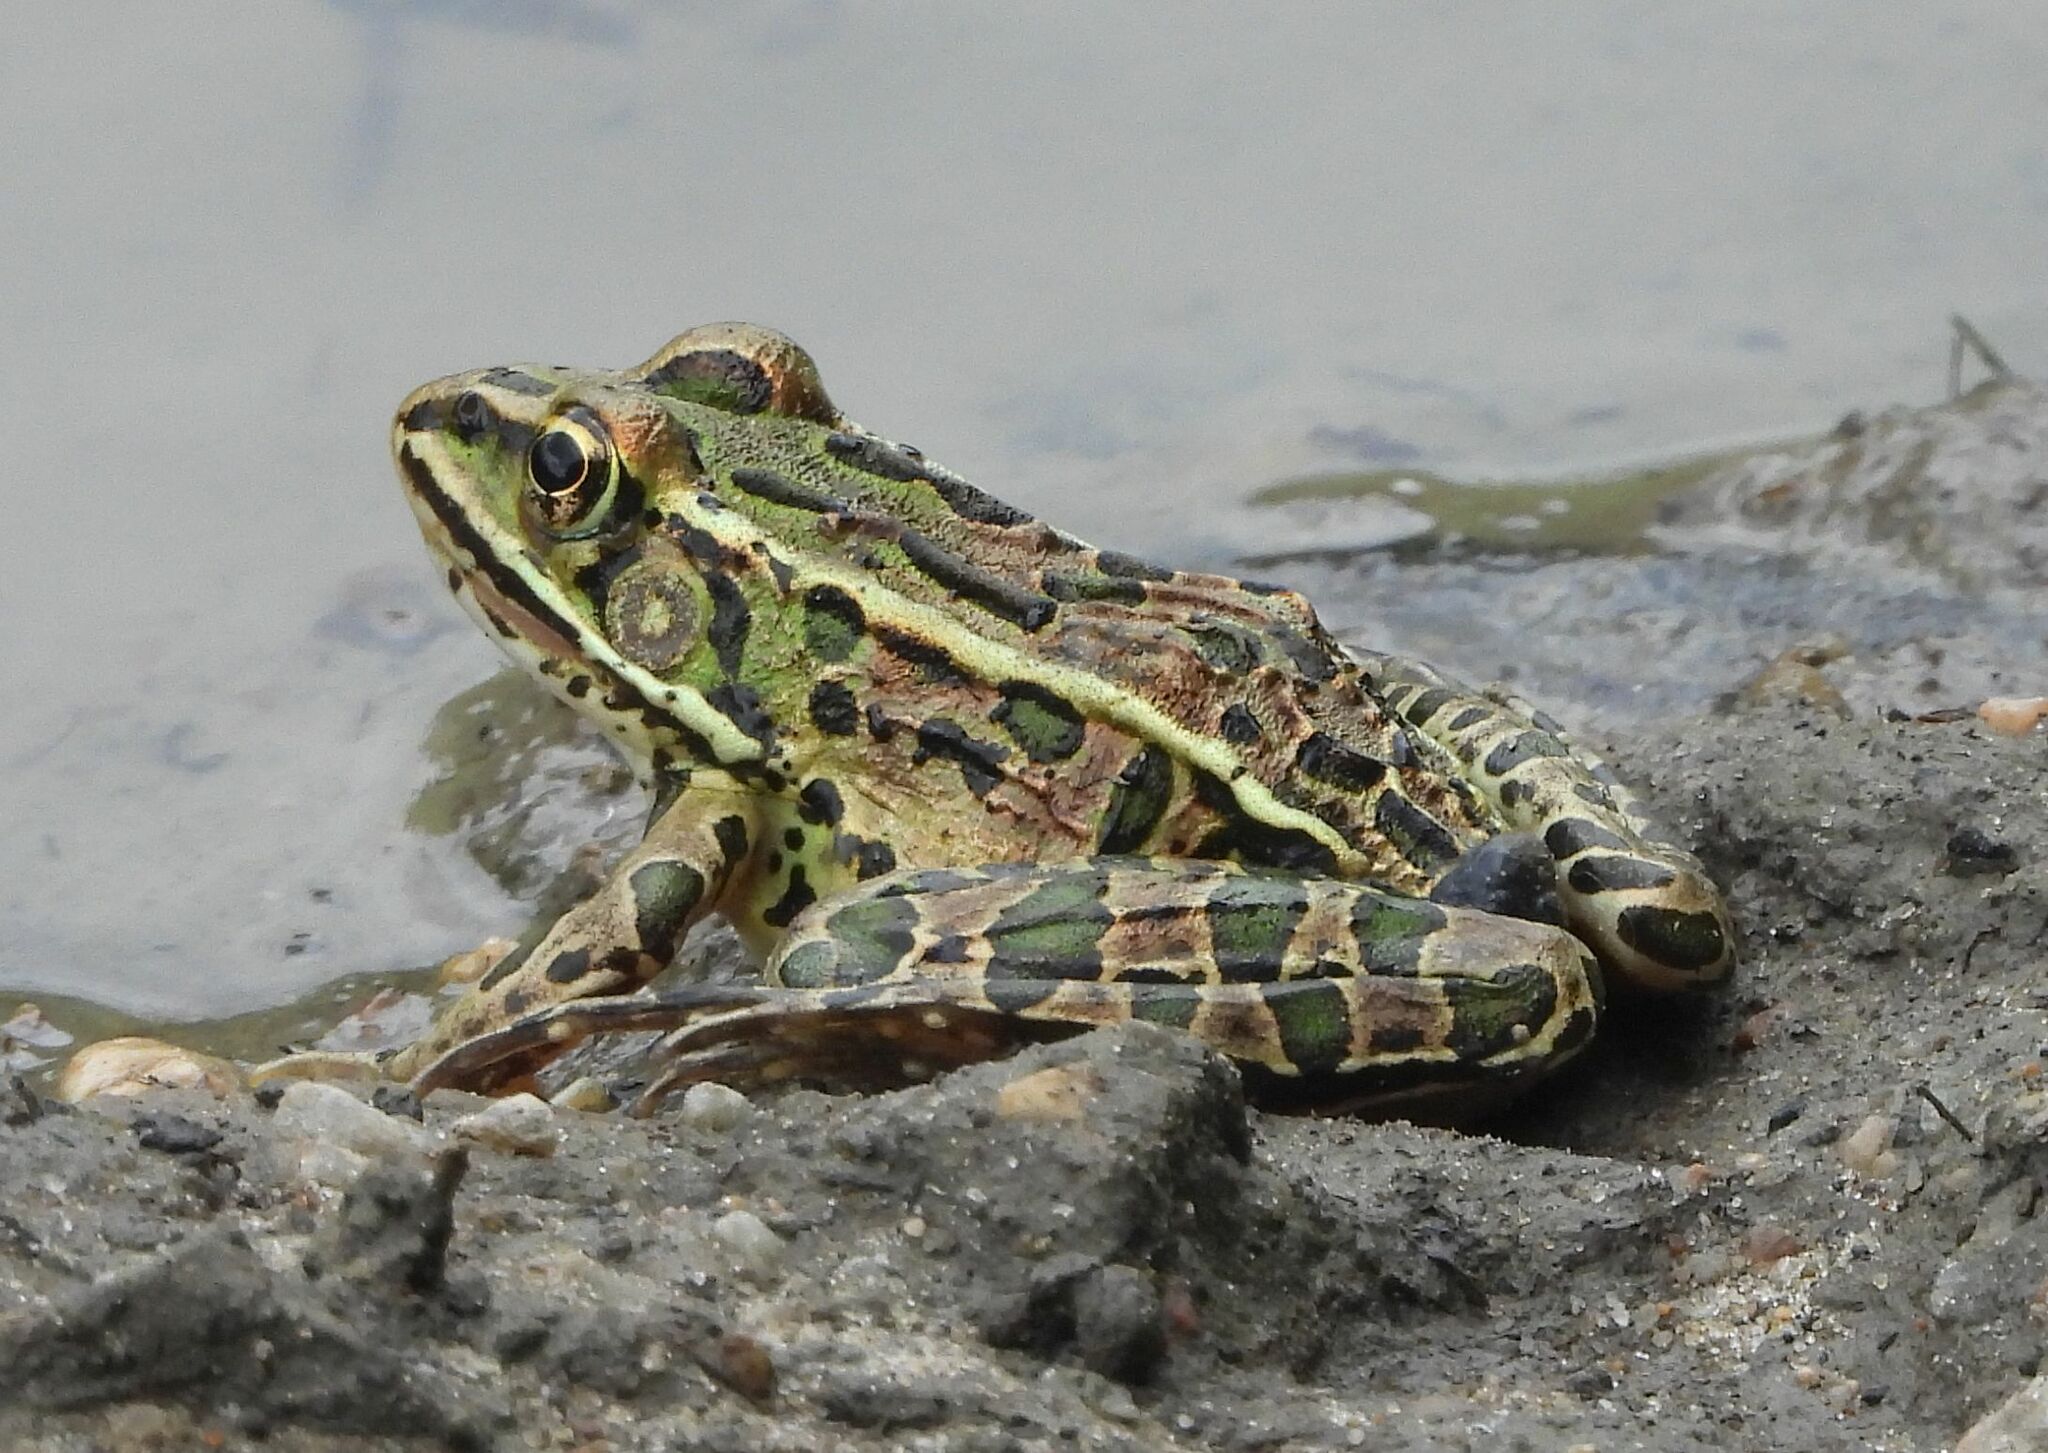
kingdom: Animalia
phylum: Chordata
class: Amphibia
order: Anura
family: Ranidae
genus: Lithobates
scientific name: Lithobates pipiens
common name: Northern leopard frog
